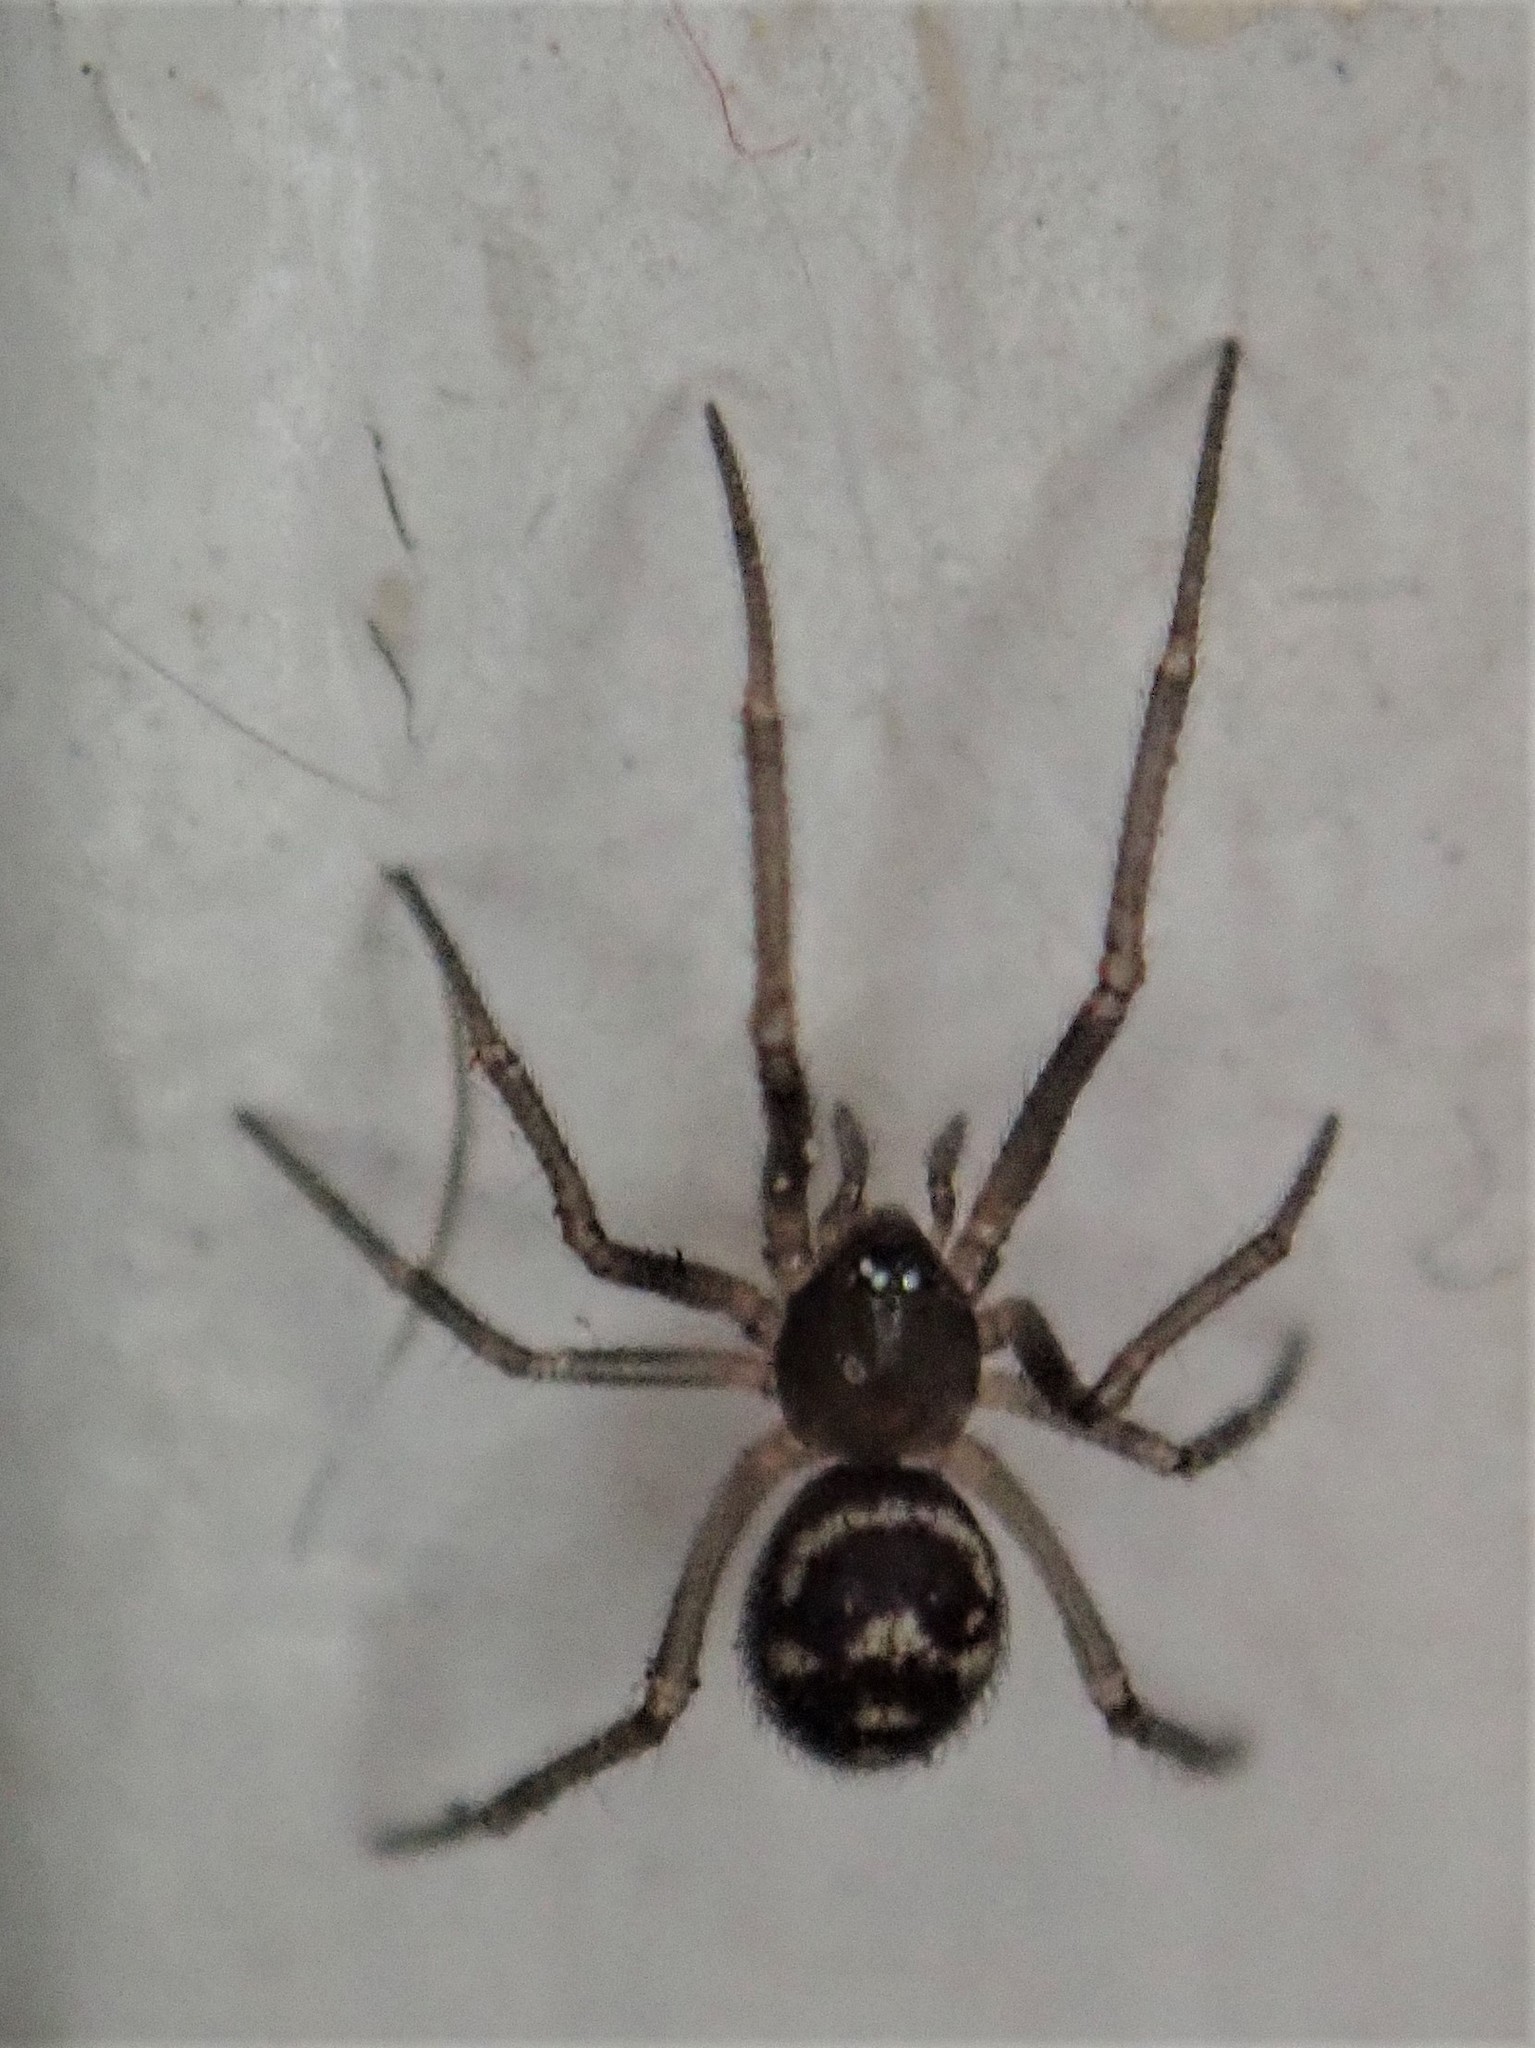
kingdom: Animalia
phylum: Arthropoda
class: Arachnida
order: Araneae
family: Theridiidae
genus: Steatoda
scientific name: Steatoda grossa
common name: False black widow
